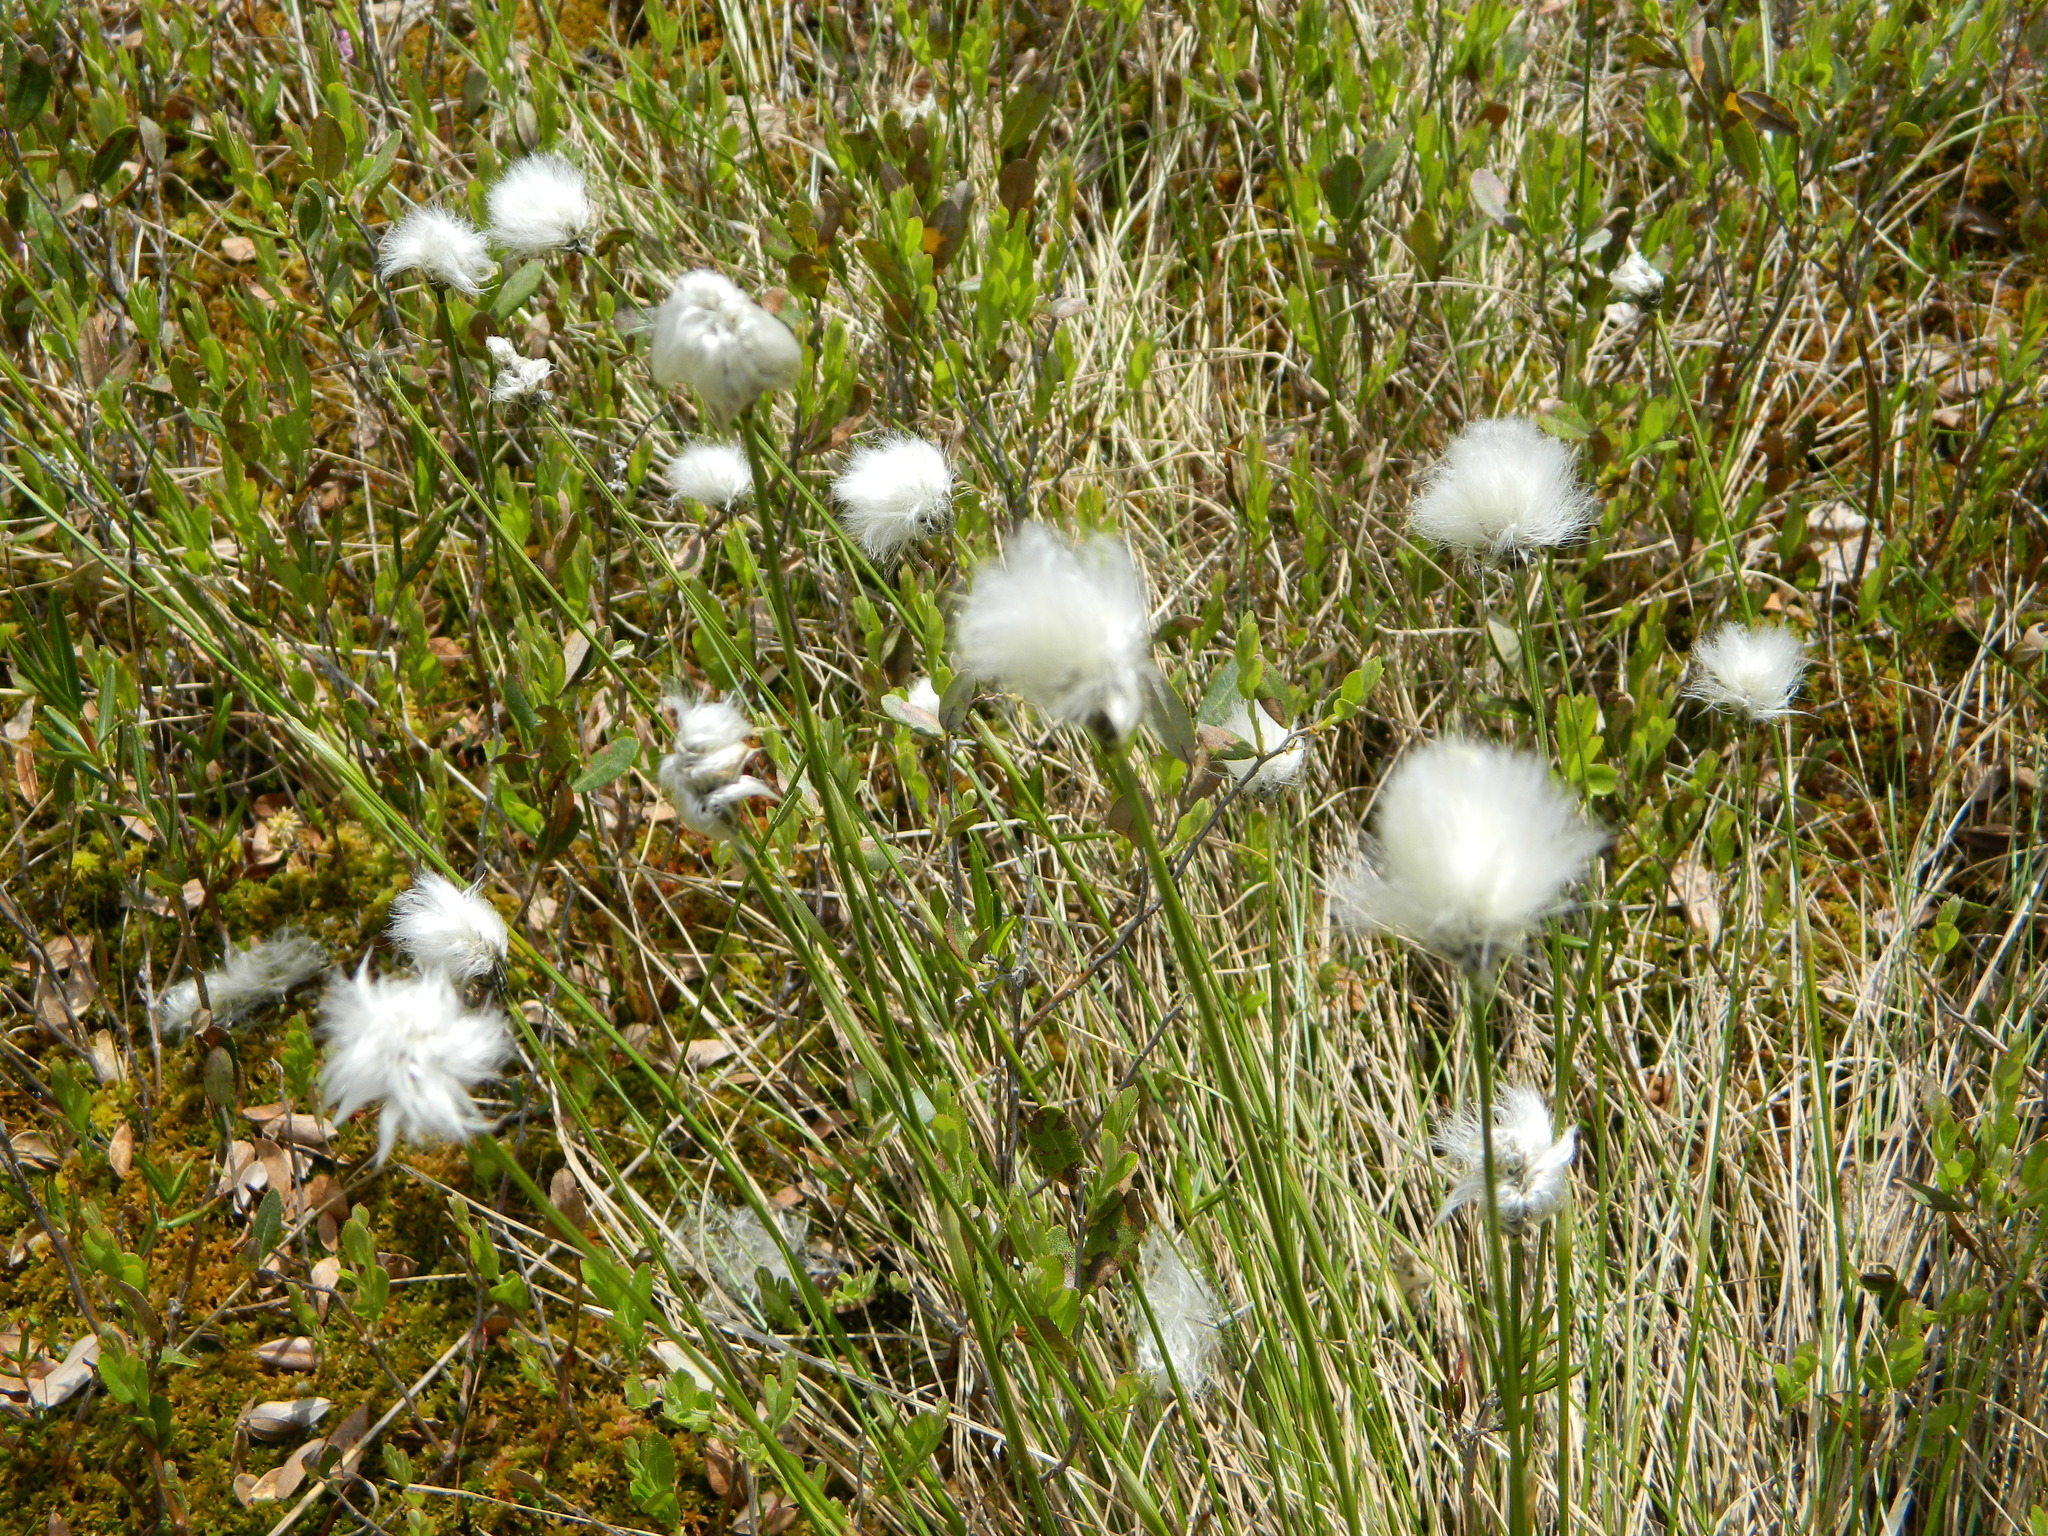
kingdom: Plantae
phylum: Tracheophyta
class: Liliopsida
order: Poales
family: Cyperaceae
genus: Eriophorum
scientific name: Eriophorum vaginatum
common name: Hare's-tail cottongrass
